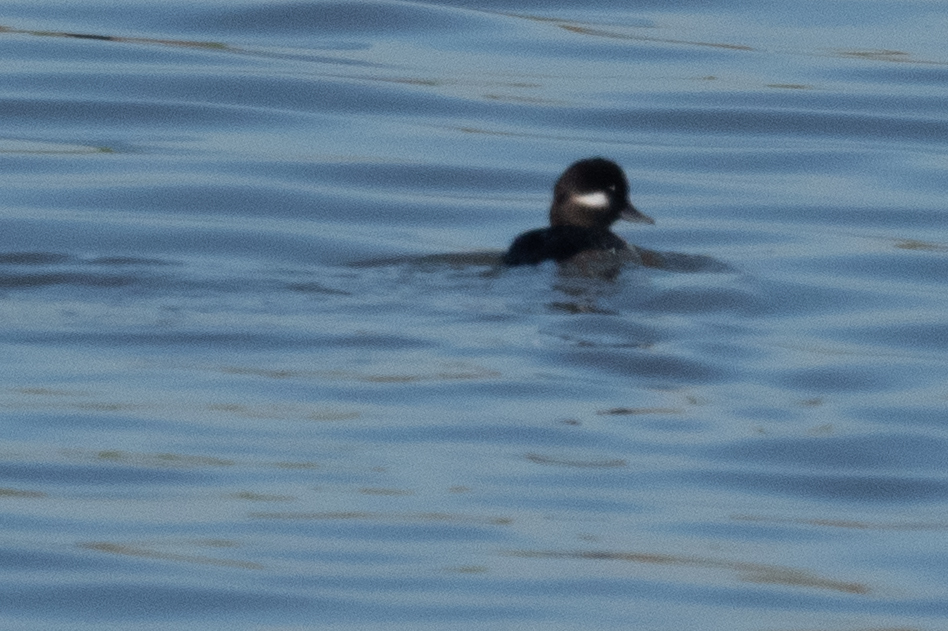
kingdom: Animalia
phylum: Chordata
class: Aves
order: Anseriformes
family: Anatidae
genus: Bucephala
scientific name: Bucephala albeola
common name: Bufflehead
